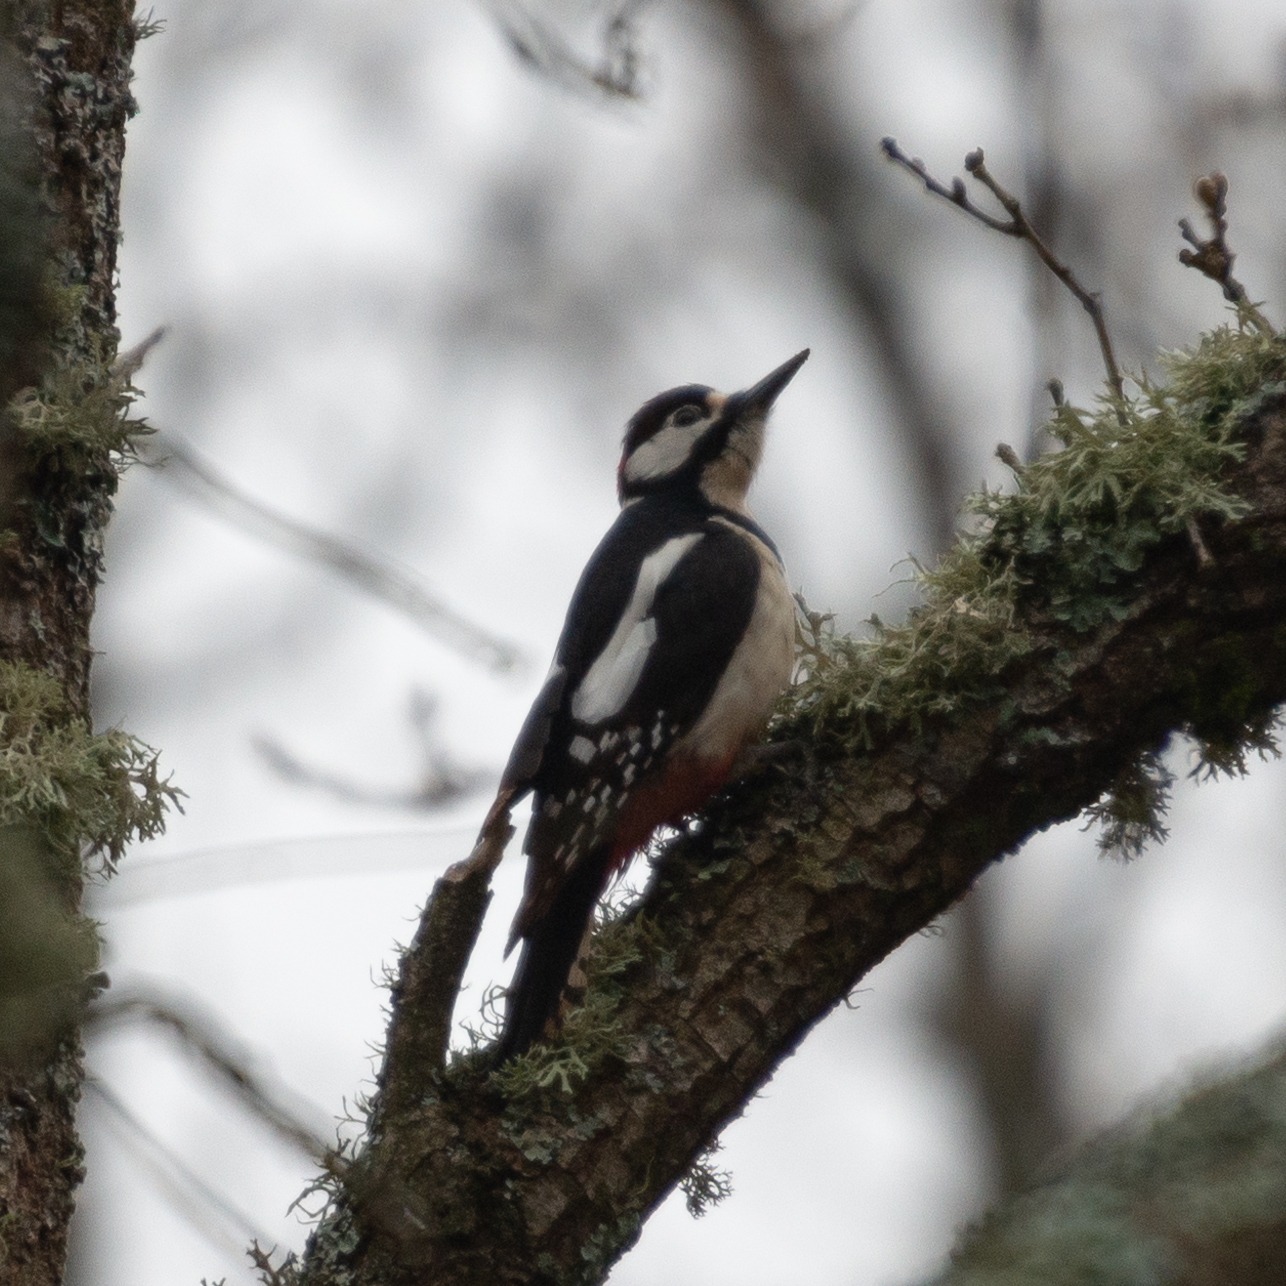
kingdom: Animalia
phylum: Chordata
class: Aves
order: Piciformes
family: Picidae
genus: Dendrocopos
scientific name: Dendrocopos major
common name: Great spotted woodpecker
